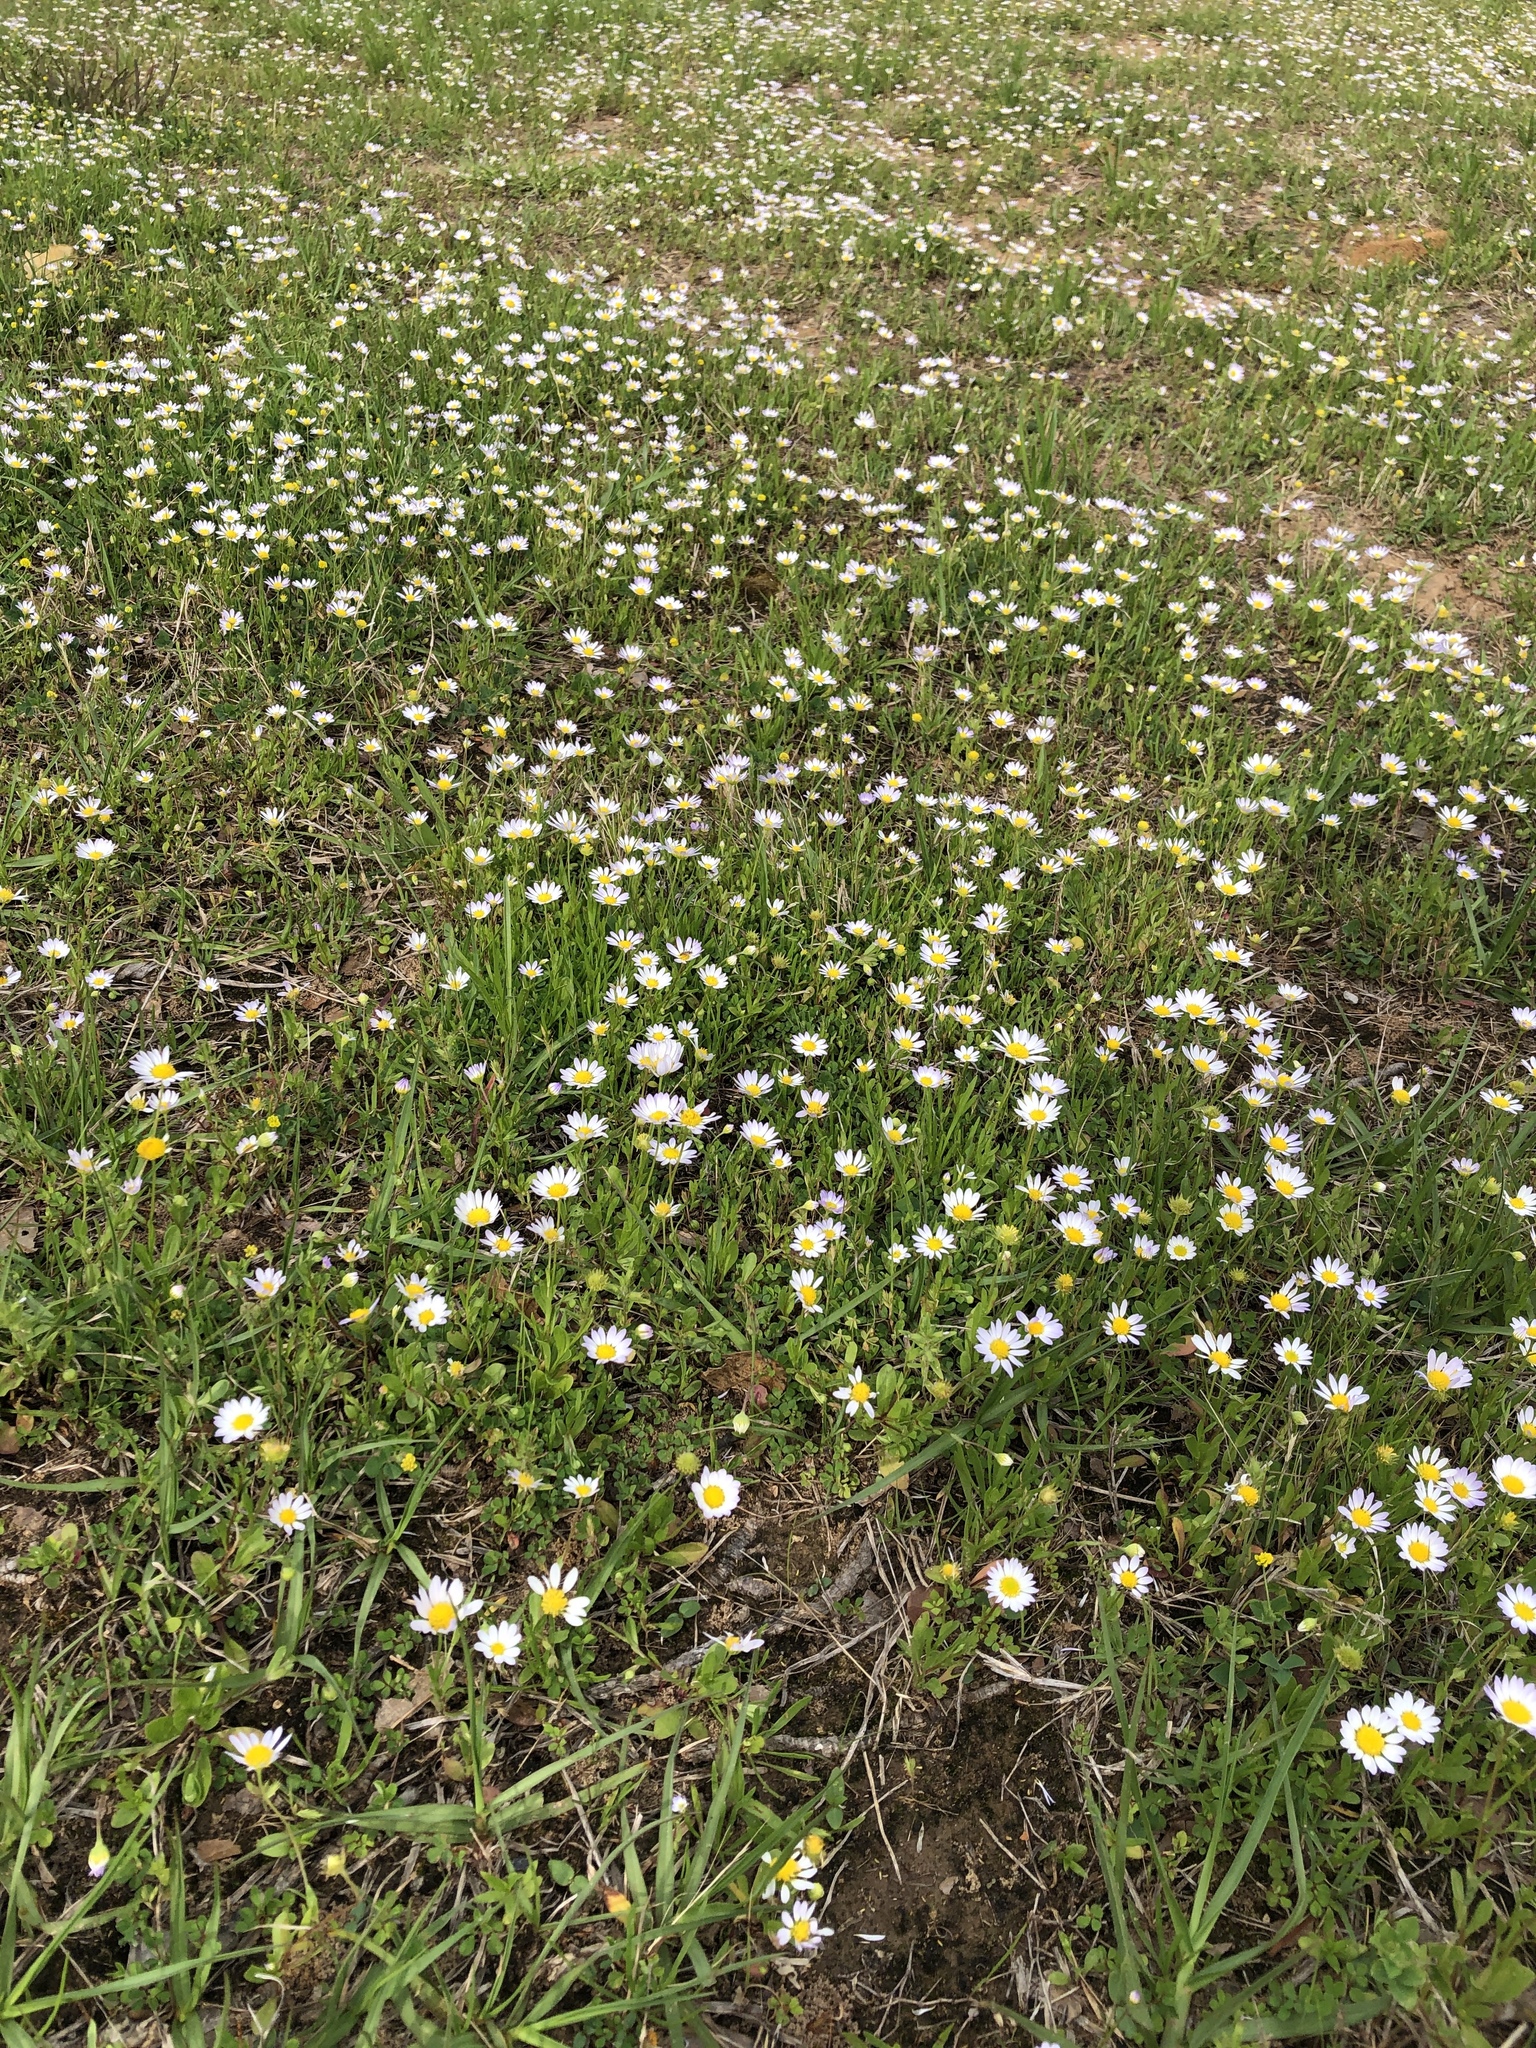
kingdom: Plantae
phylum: Tracheophyta
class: Magnoliopsida
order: Asterales
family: Asteraceae
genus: Astranthium
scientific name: Astranthium ciliatum
